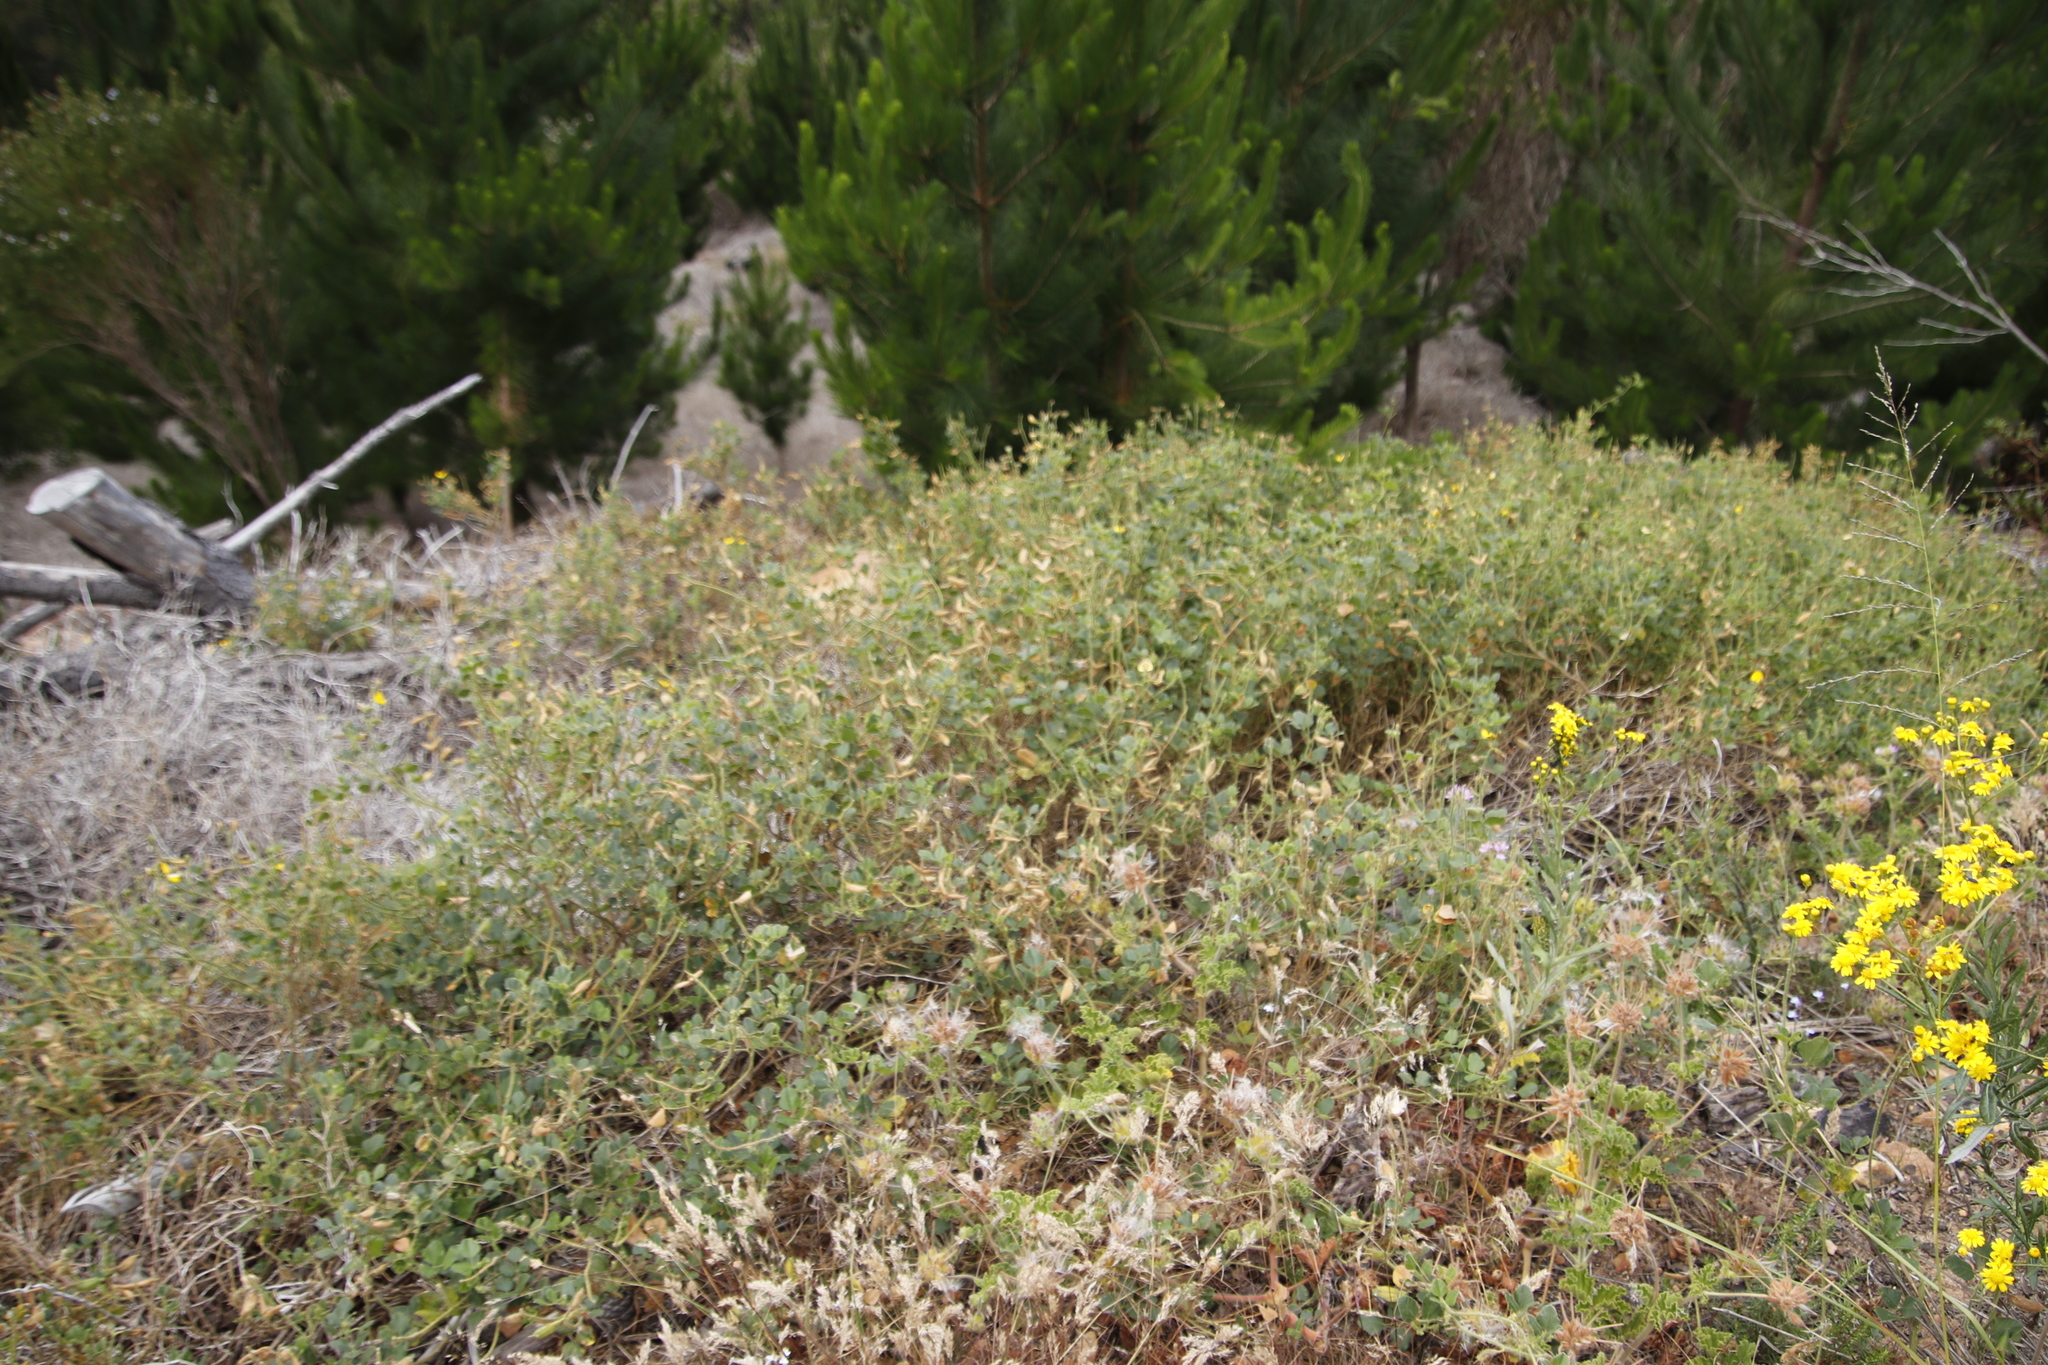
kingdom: Plantae
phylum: Tracheophyta
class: Magnoliopsida
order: Fabales
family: Fabaceae
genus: Bolusafra
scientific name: Bolusafra bituminosa
